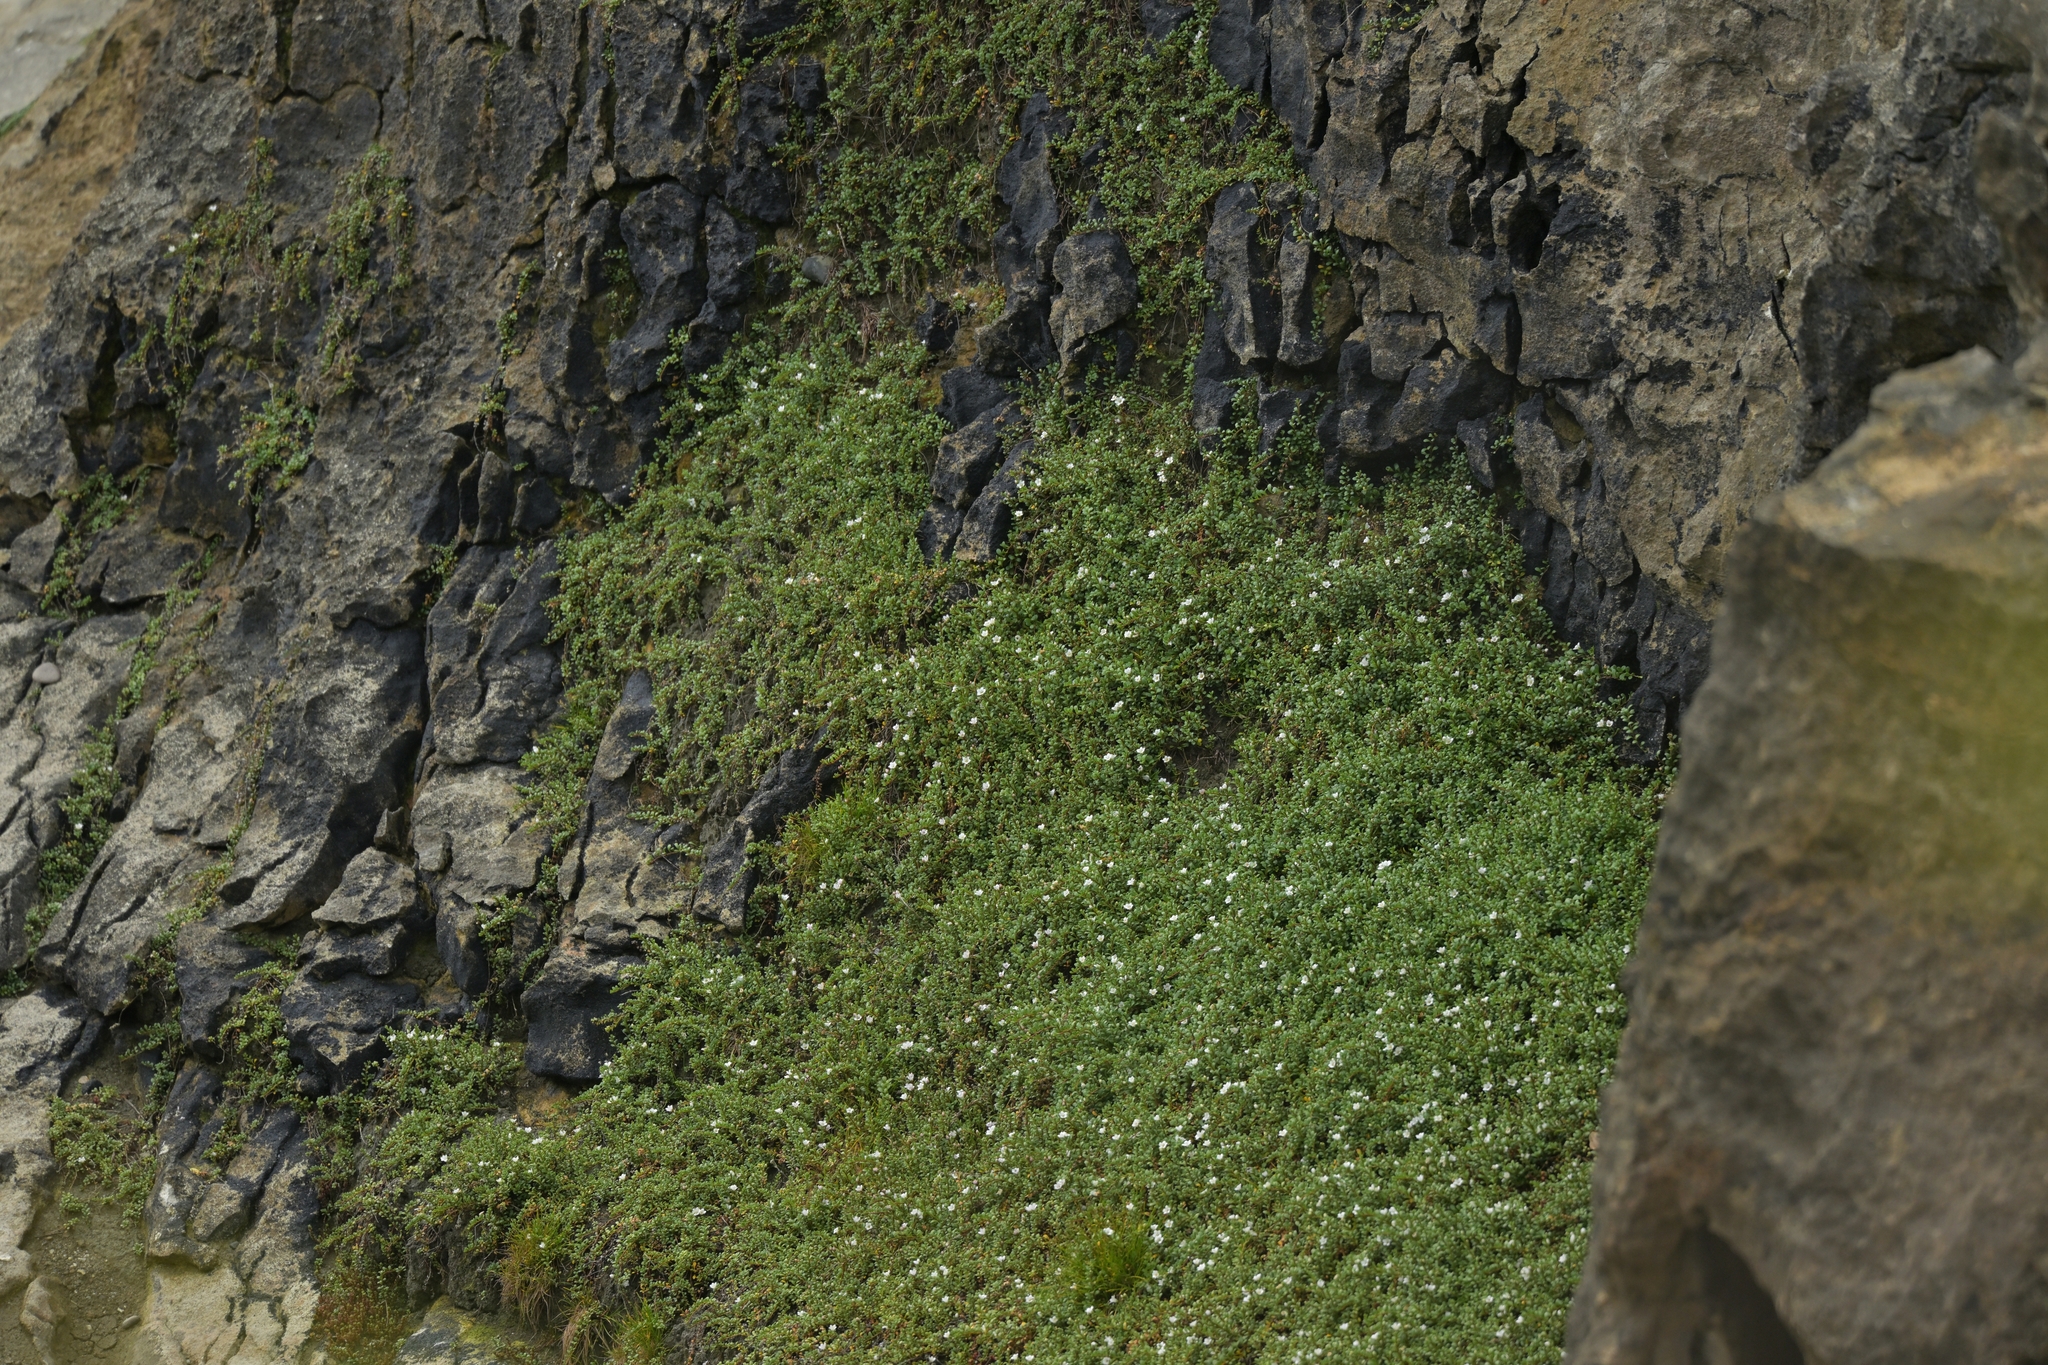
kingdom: Plantae
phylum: Tracheophyta
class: Magnoliopsida
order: Ericales
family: Primulaceae
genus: Samolus
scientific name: Samolus repens
